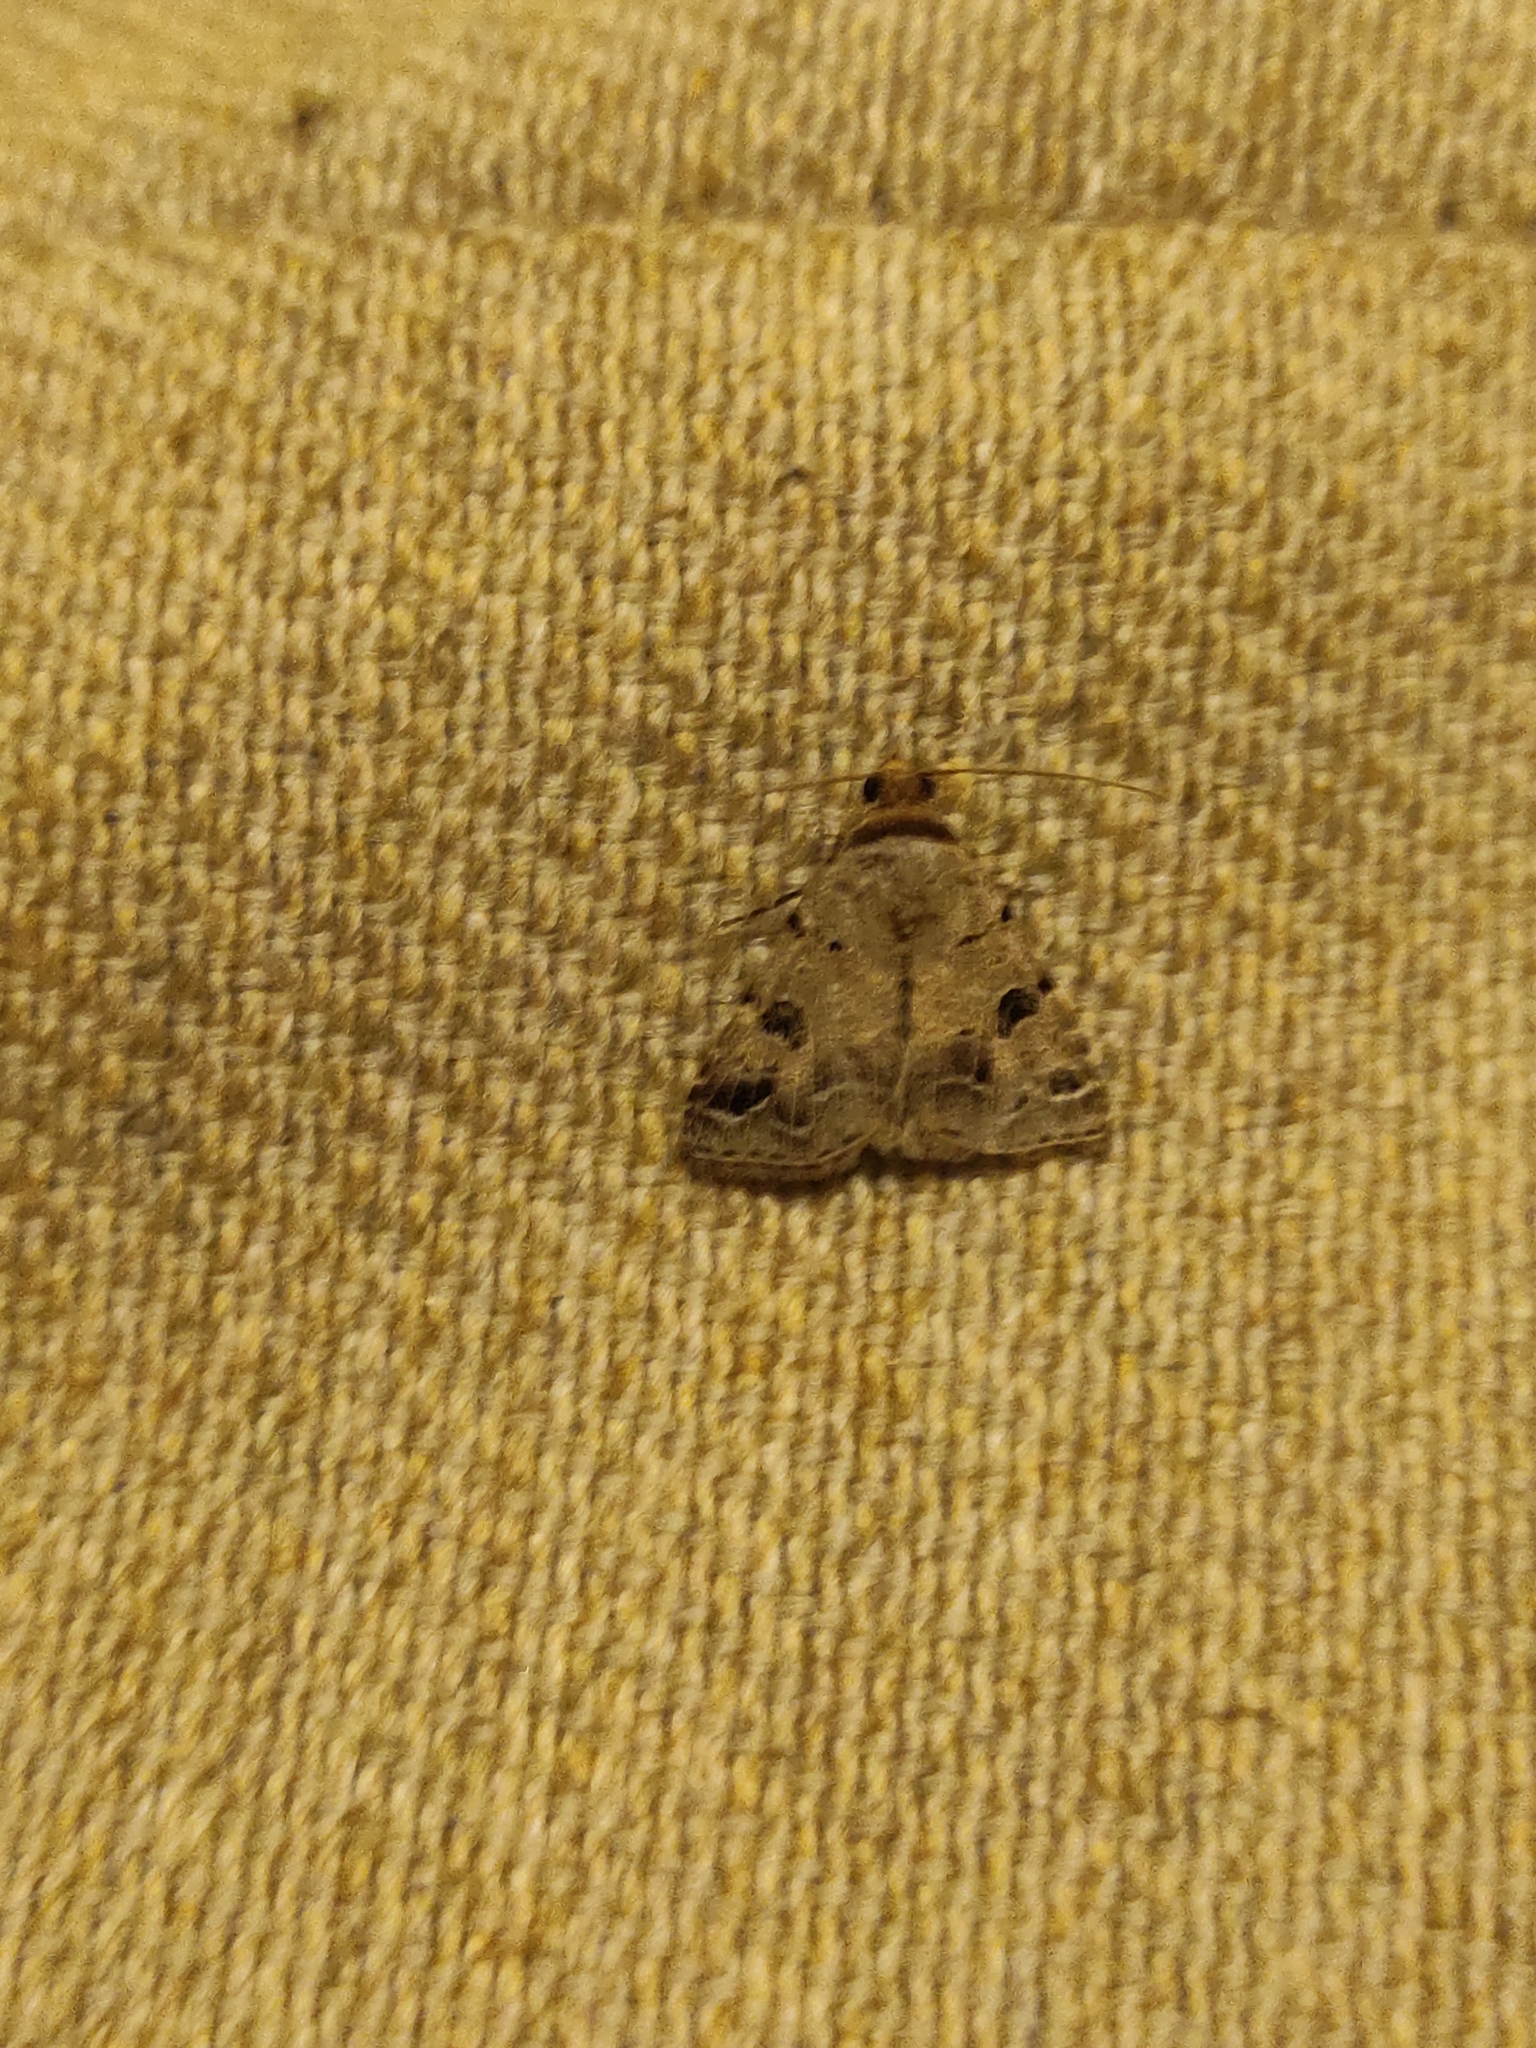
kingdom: Animalia
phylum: Arthropoda
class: Insecta
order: Lepidoptera
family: Erebidae
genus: Mocis
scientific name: Mocis diffluens
